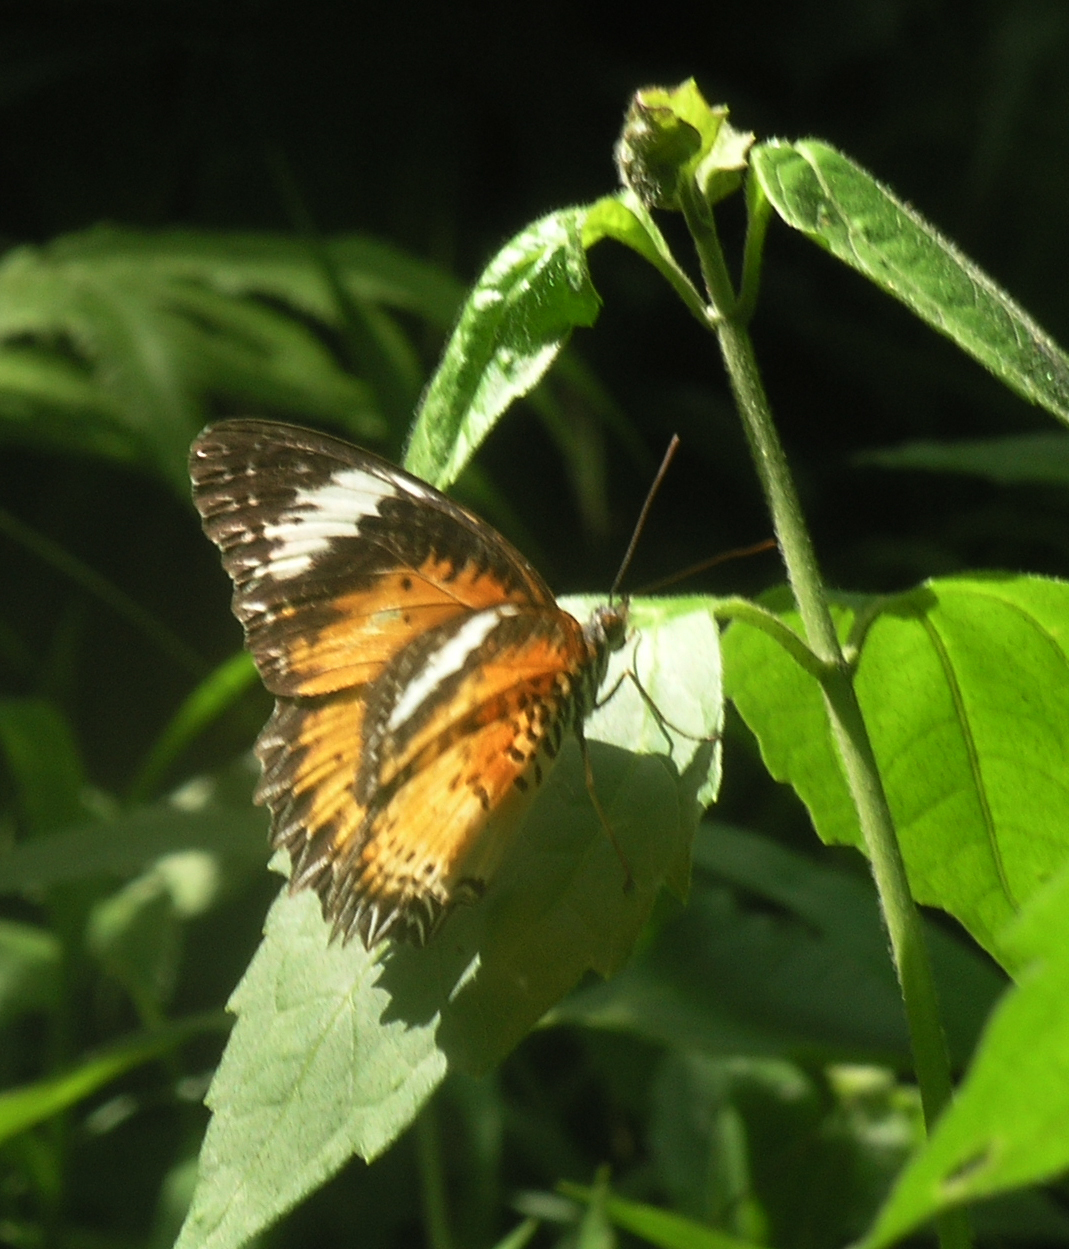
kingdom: Animalia
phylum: Arthropoda
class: Insecta
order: Lepidoptera
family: Nymphalidae
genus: Cethosia
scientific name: Cethosia cyane
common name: Leopard lacewing butterfly
